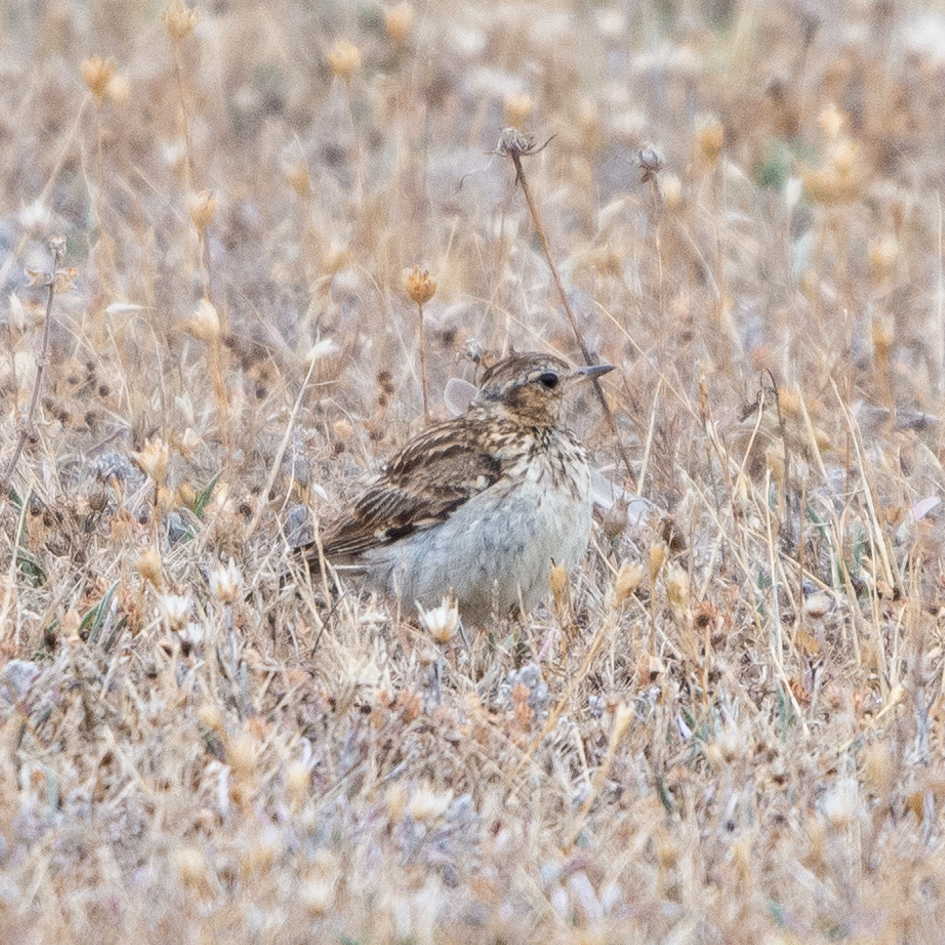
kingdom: Animalia
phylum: Chordata
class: Aves
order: Passeriformes
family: Alaudidae
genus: Lullula
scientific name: Lullula arborea
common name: Woodlark
